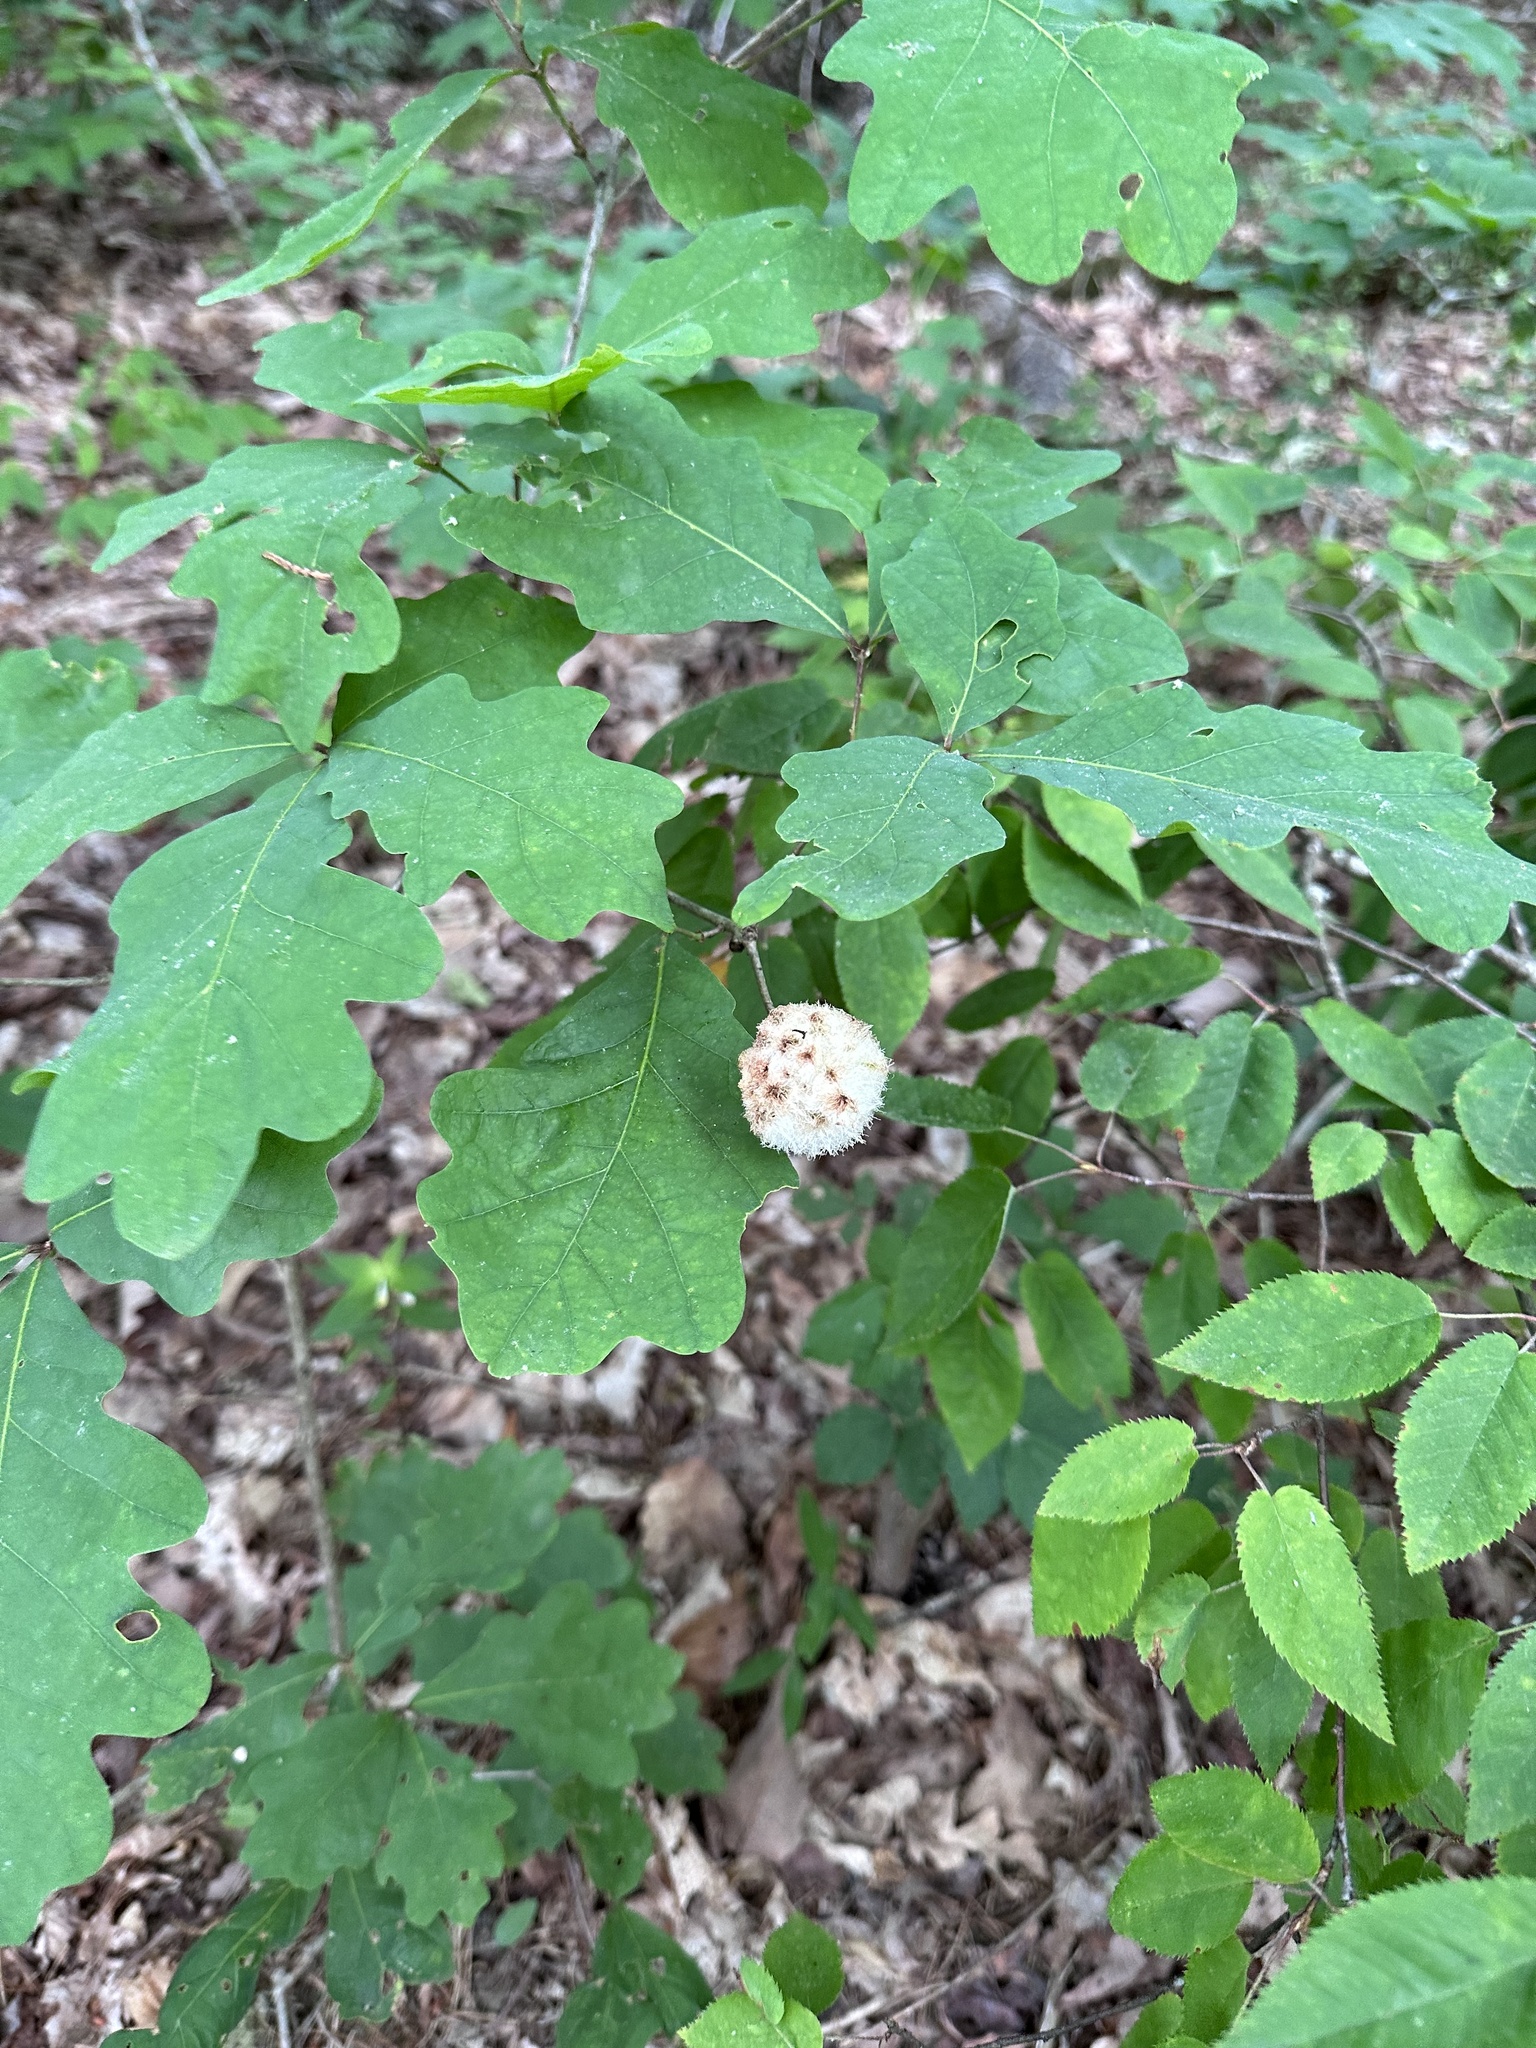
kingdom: Animalia
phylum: Arthropoda
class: Insecta
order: Hymenoptera
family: Cynipidae
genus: Callirhytis
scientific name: Callirhytis
